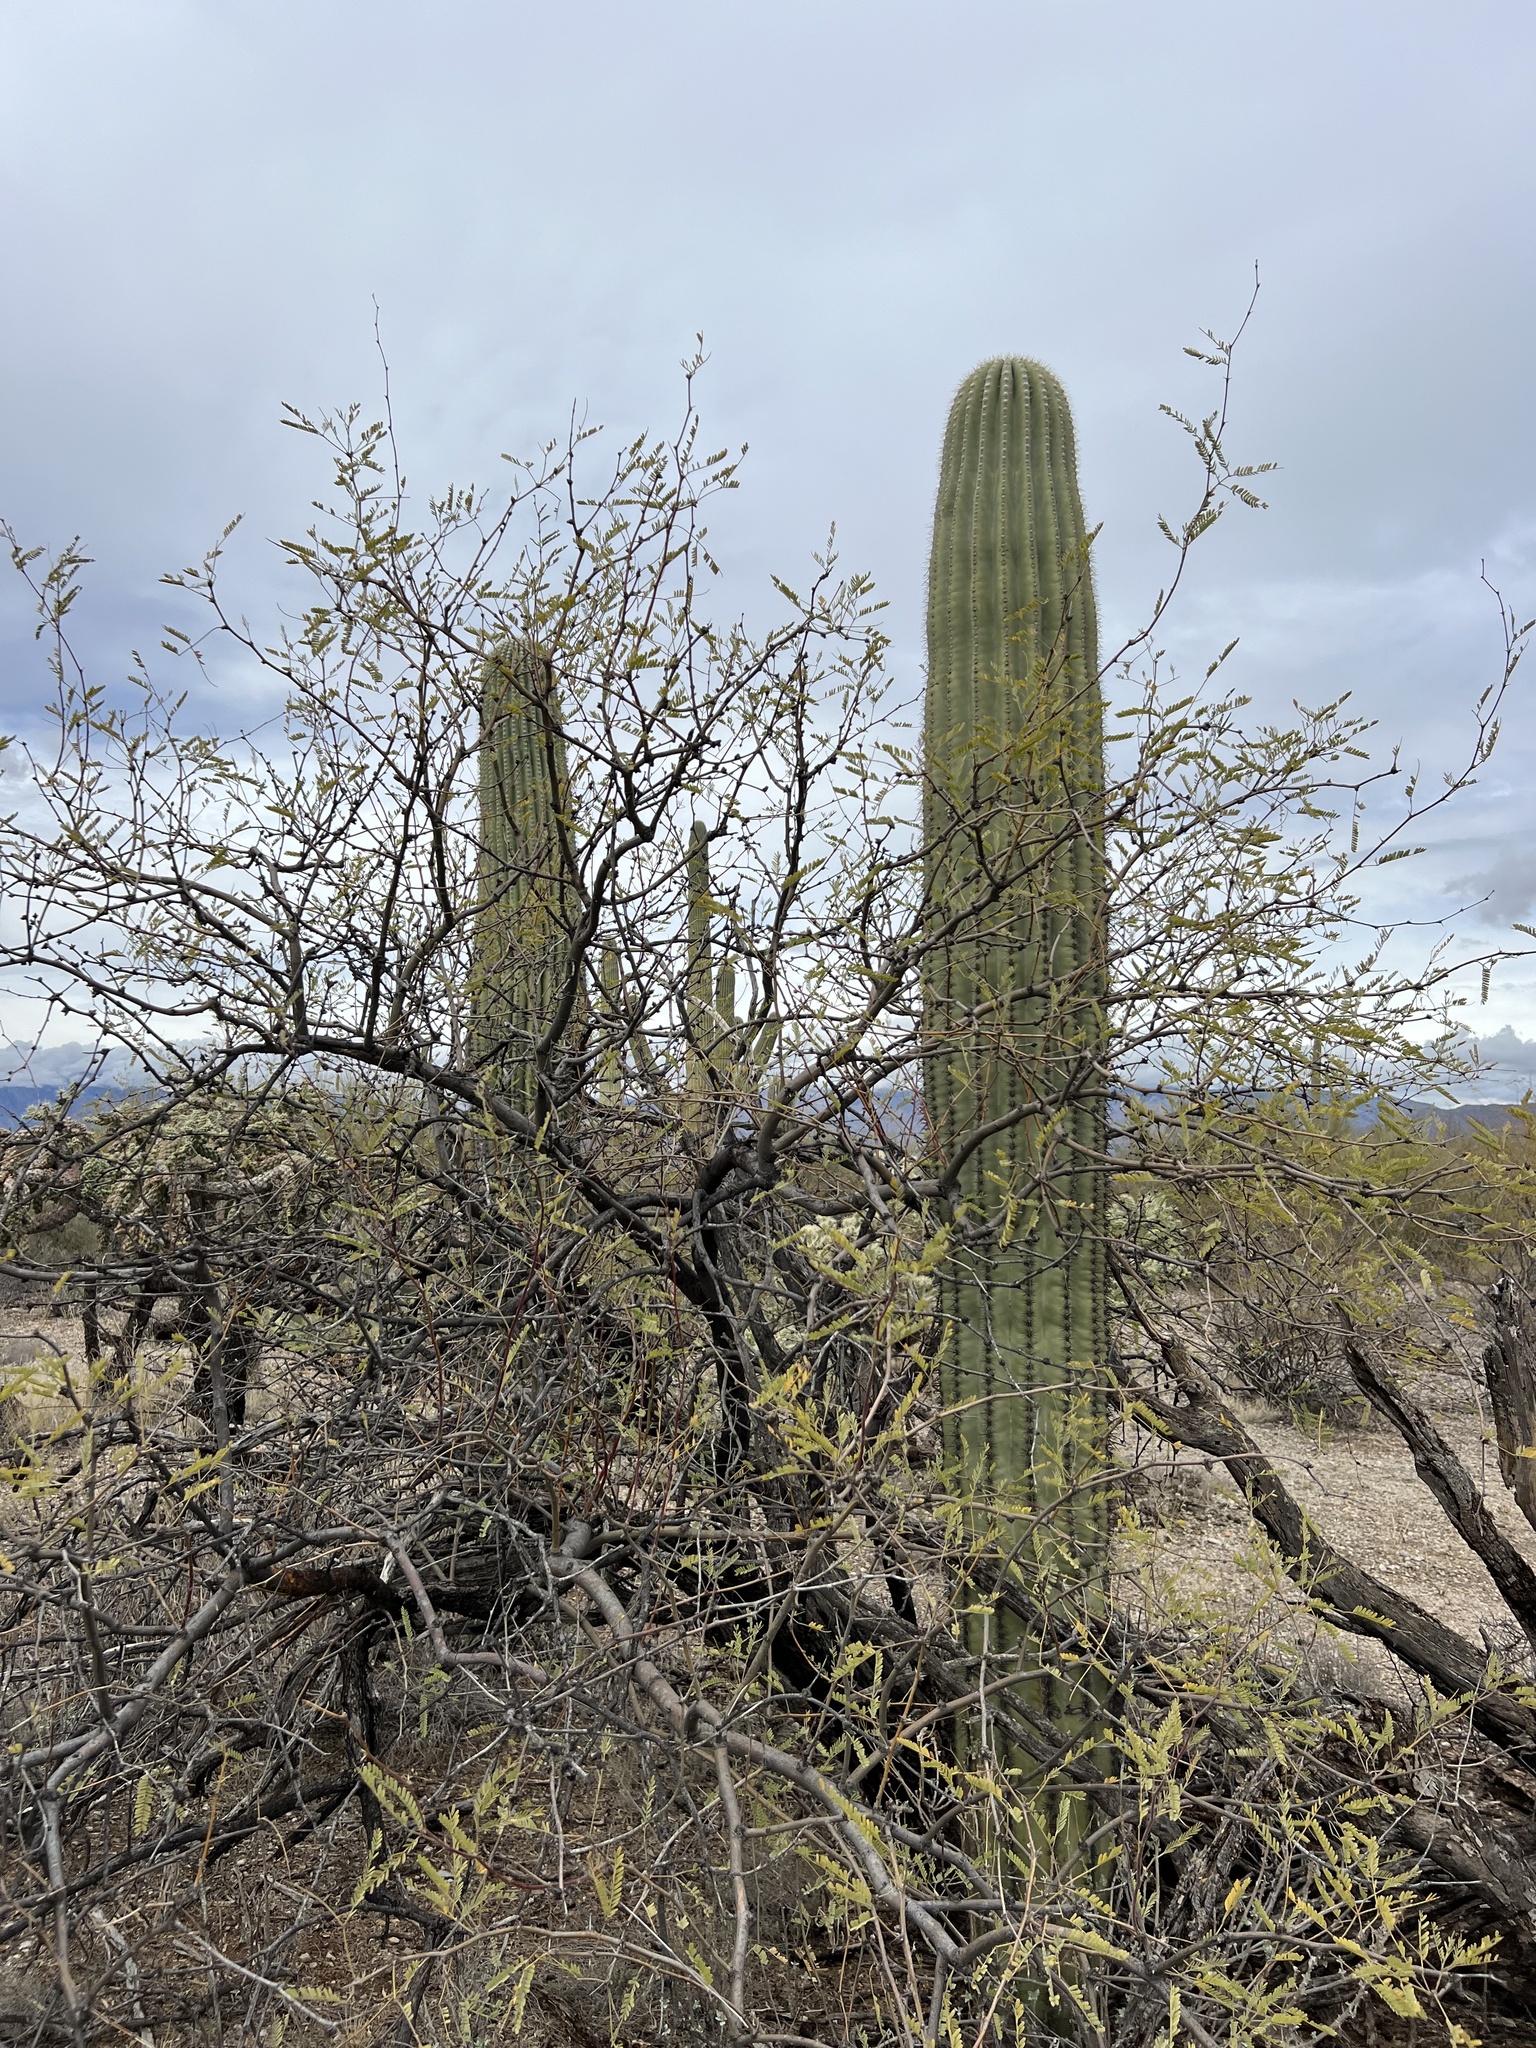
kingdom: Plantae
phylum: Tracheophyta
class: Magnoliopsida
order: Caryophyllales
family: Cactaceae
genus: Carnegiea
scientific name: Carnegiea gigantea
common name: Saguaro
